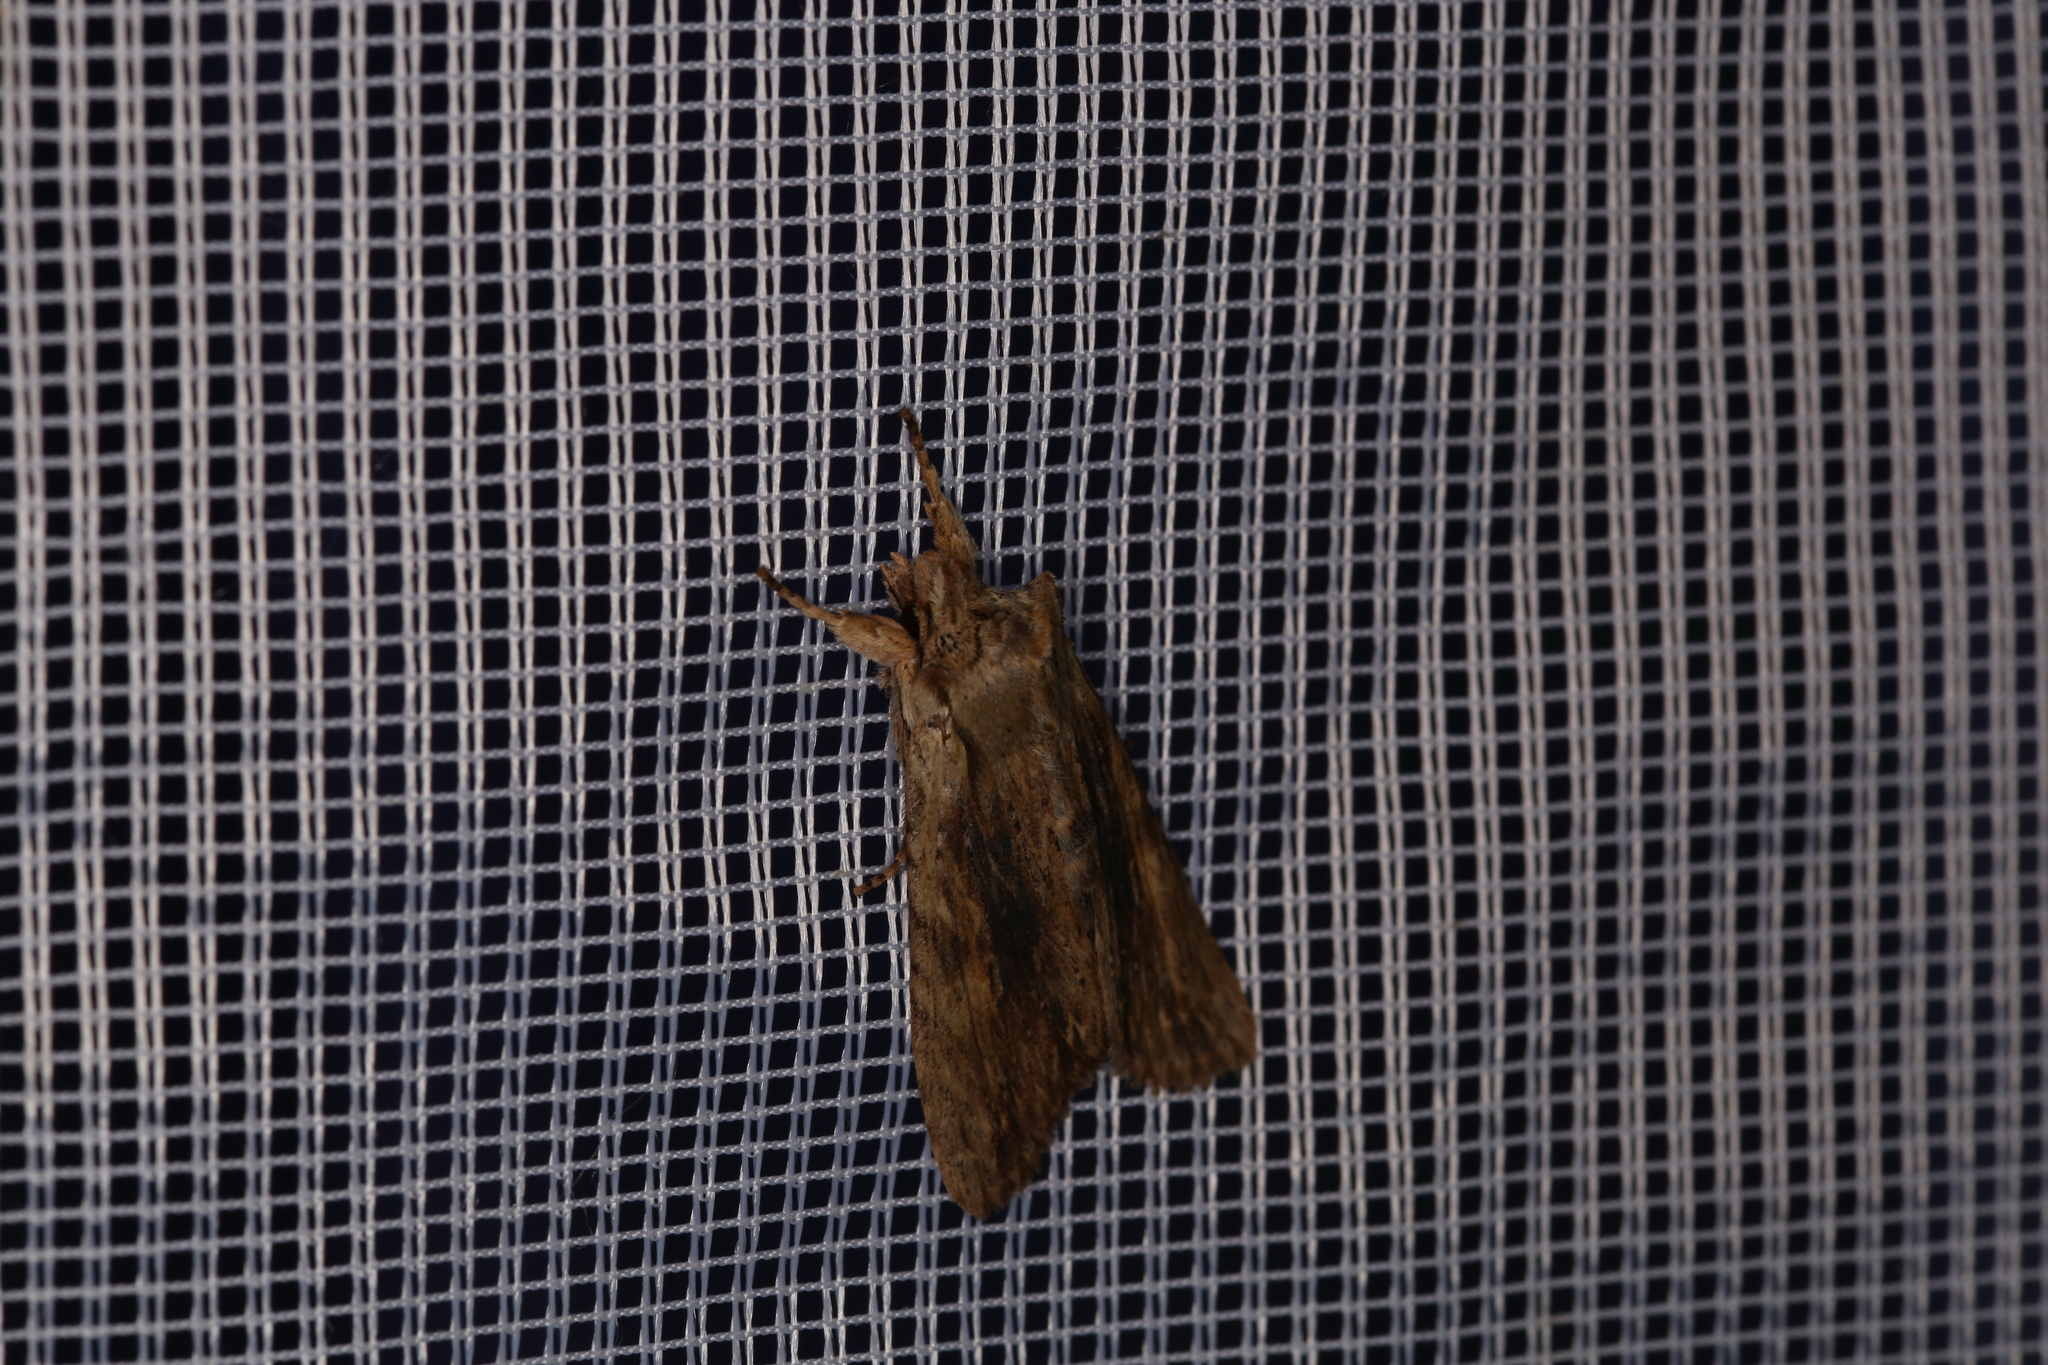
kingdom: Animalia
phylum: Arthropoda
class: Insecta
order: Lepidoptera
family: Noctuidae
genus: Lithophane
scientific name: Lithophane socia
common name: Pale pinion
